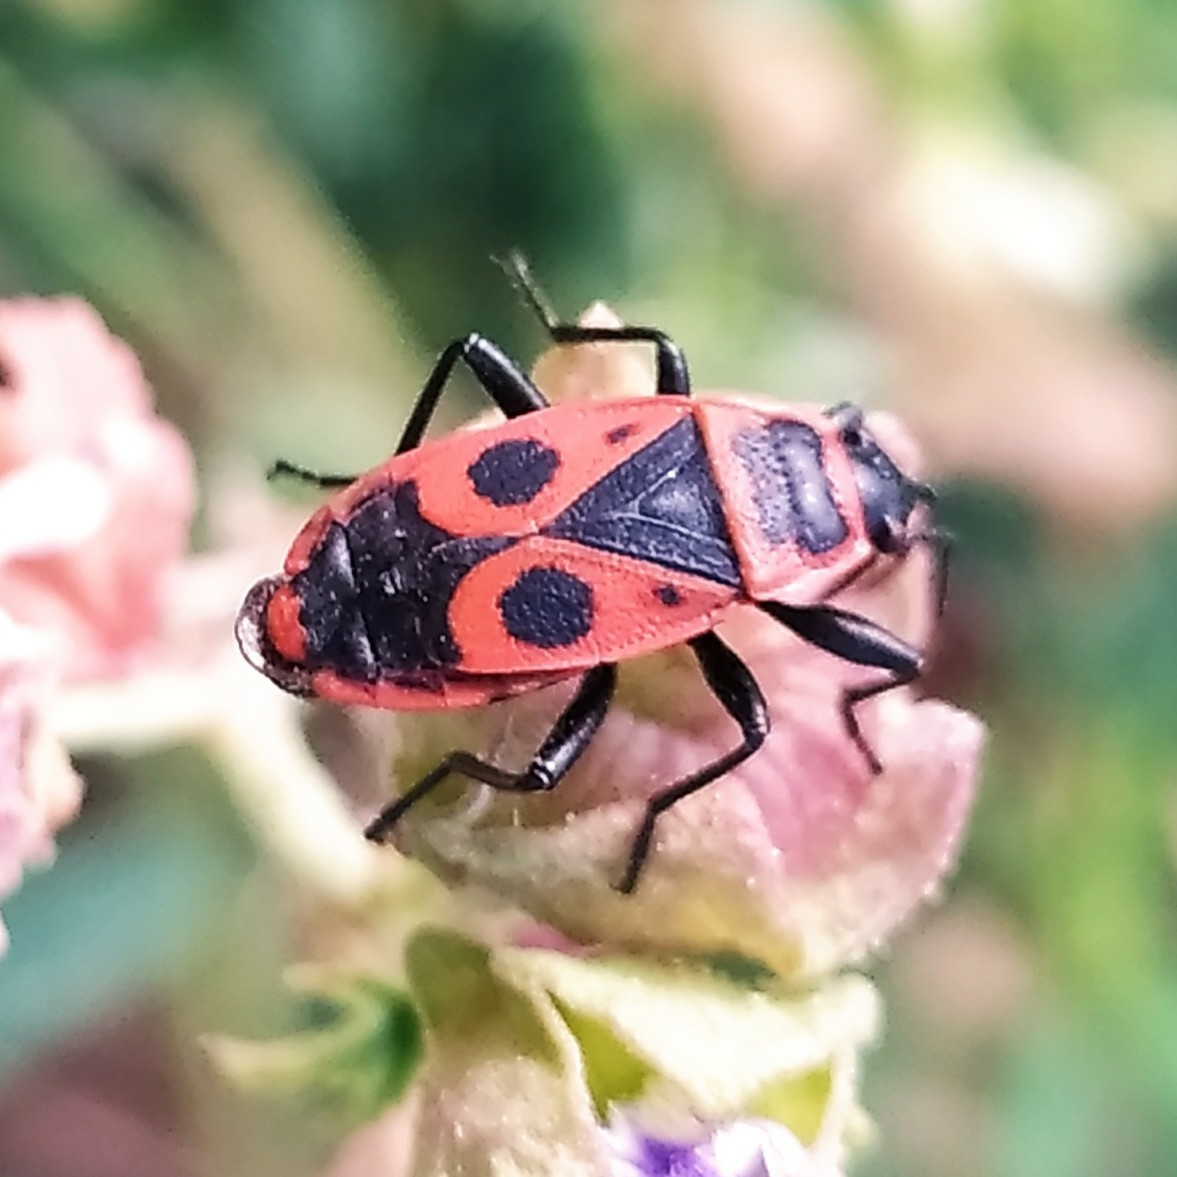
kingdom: Animalia
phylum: Arthropoda
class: Insecta
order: Hemiptera
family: Pyrrhocoridae
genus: Pyrrhocoris
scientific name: Pyrrhocoris apterus
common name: Firebug
